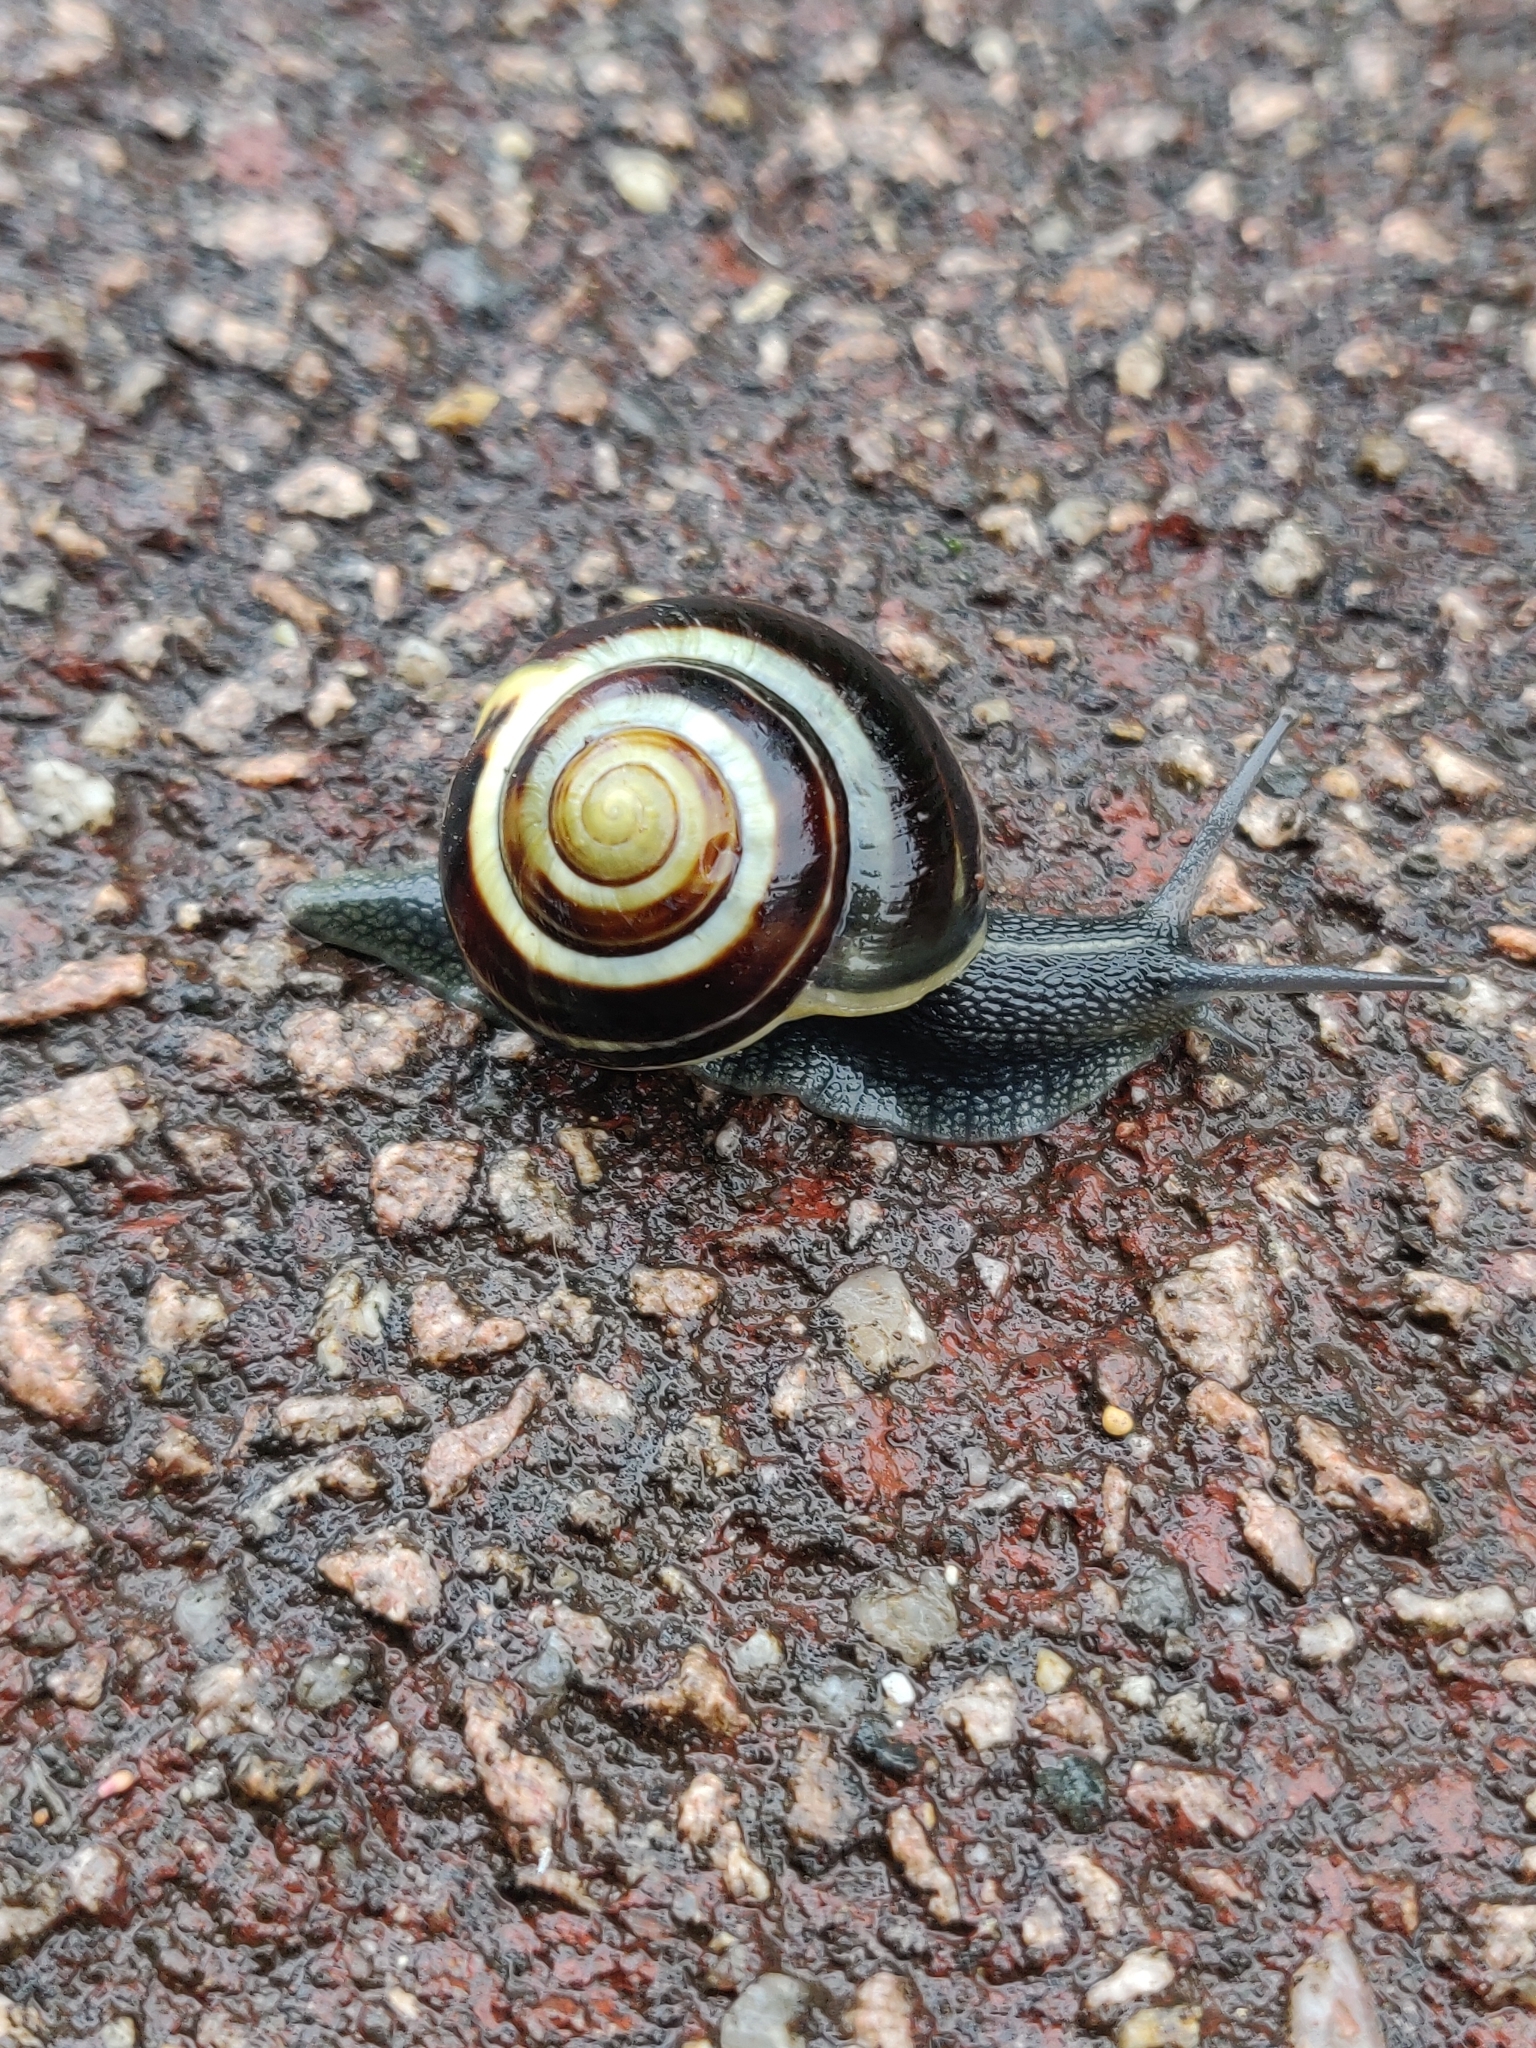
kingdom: Animalia
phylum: Mollusca
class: Gastropoda
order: Stylommatophora
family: Helicidae
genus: Cepaea
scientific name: Cepaea
